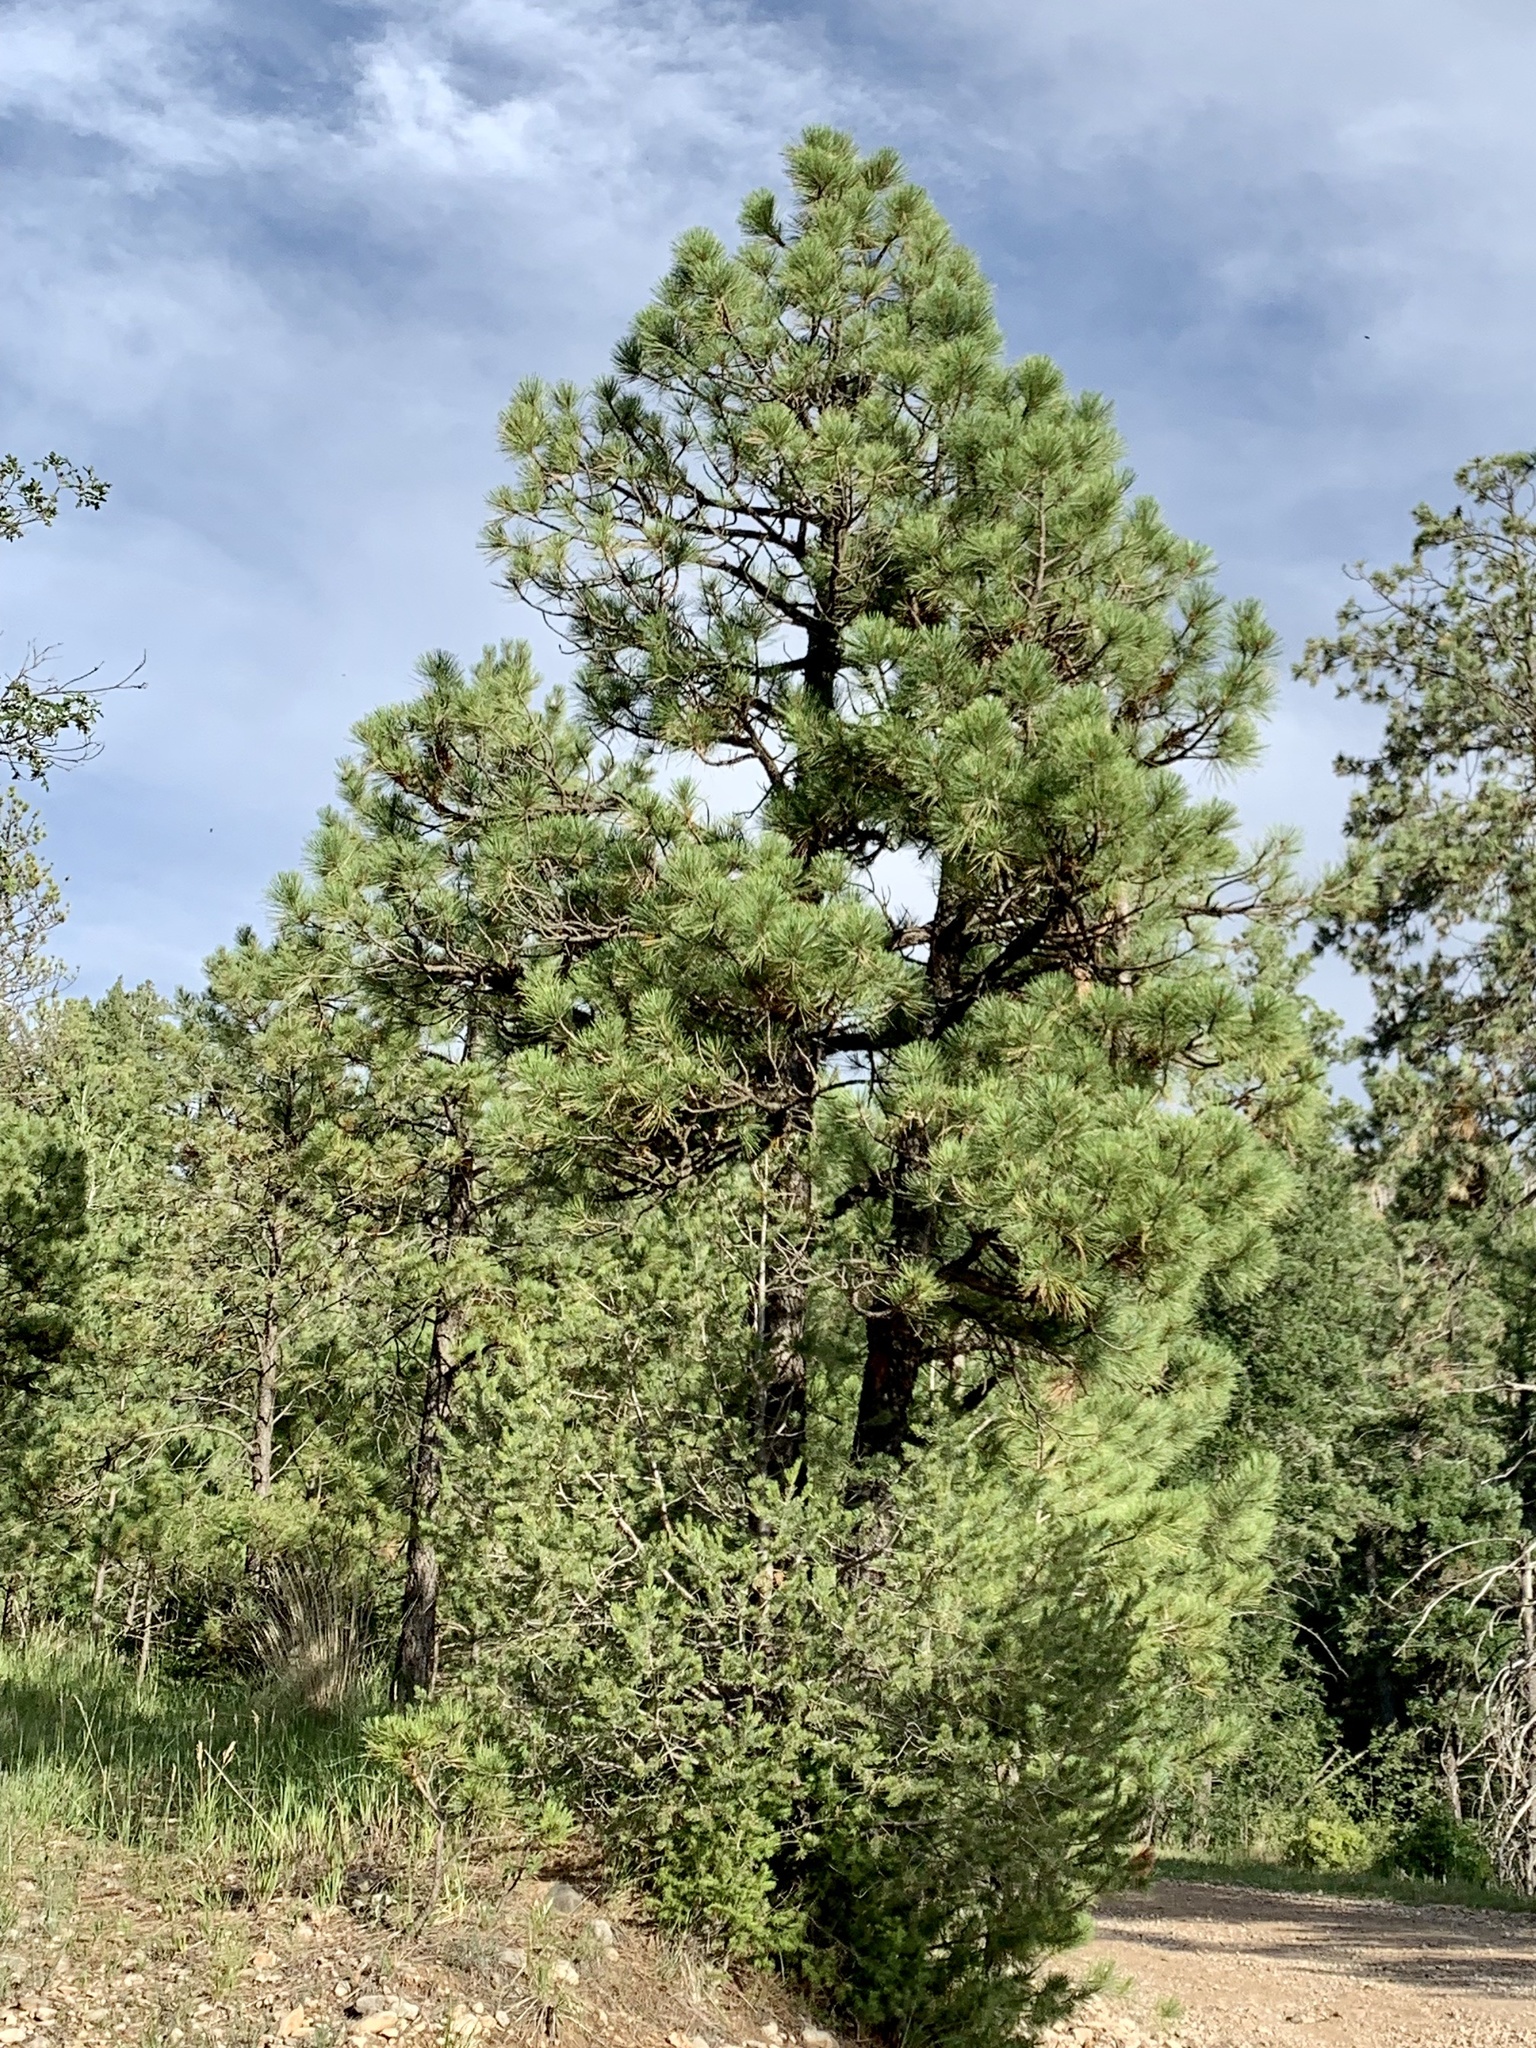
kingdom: Plantae
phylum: Tracheophyta
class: Pinopsida
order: Pinales
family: Pinaceae
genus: Pinus
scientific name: Pinus ponderosa
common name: Western yellow-pine
